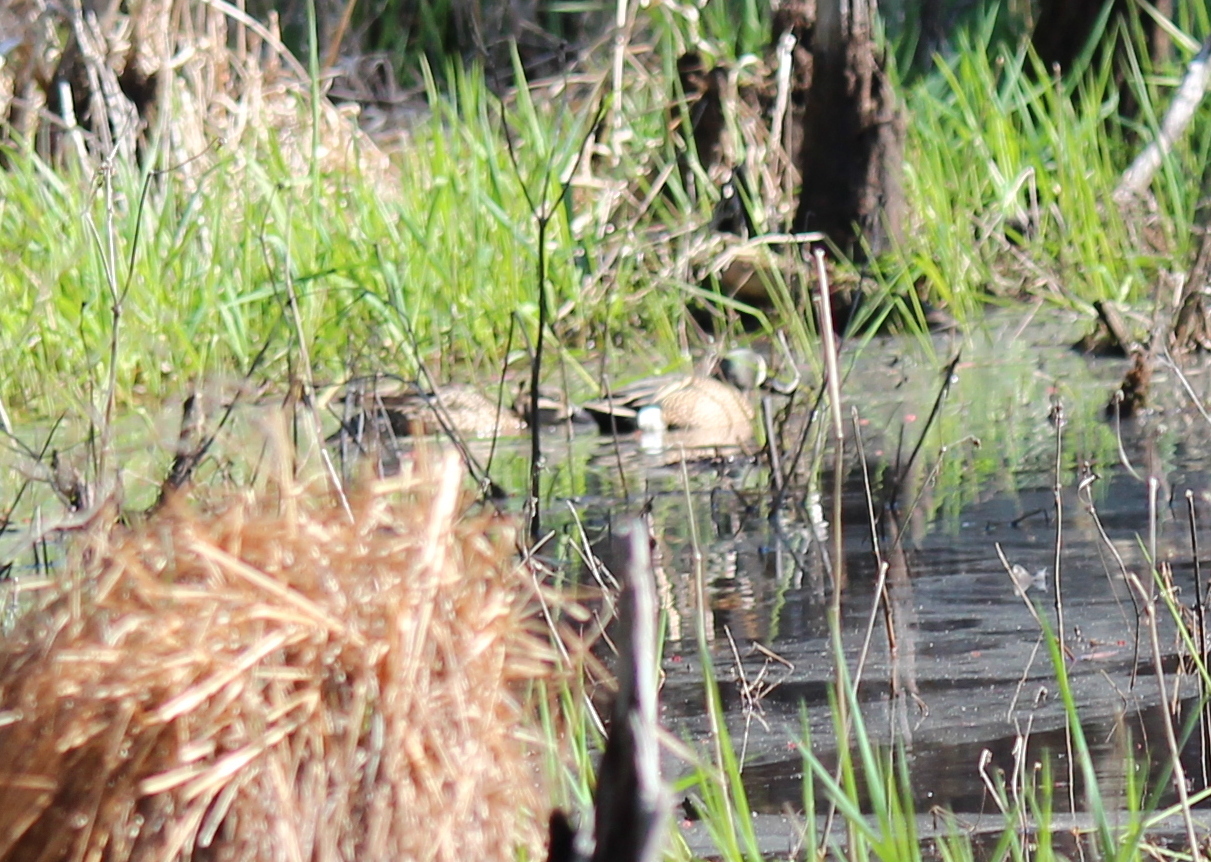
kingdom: Animalia
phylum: Chordata
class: Aves
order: Anseriformes
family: Anatidae
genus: Spatula
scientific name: Spatula discors
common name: Blue-winged teal
